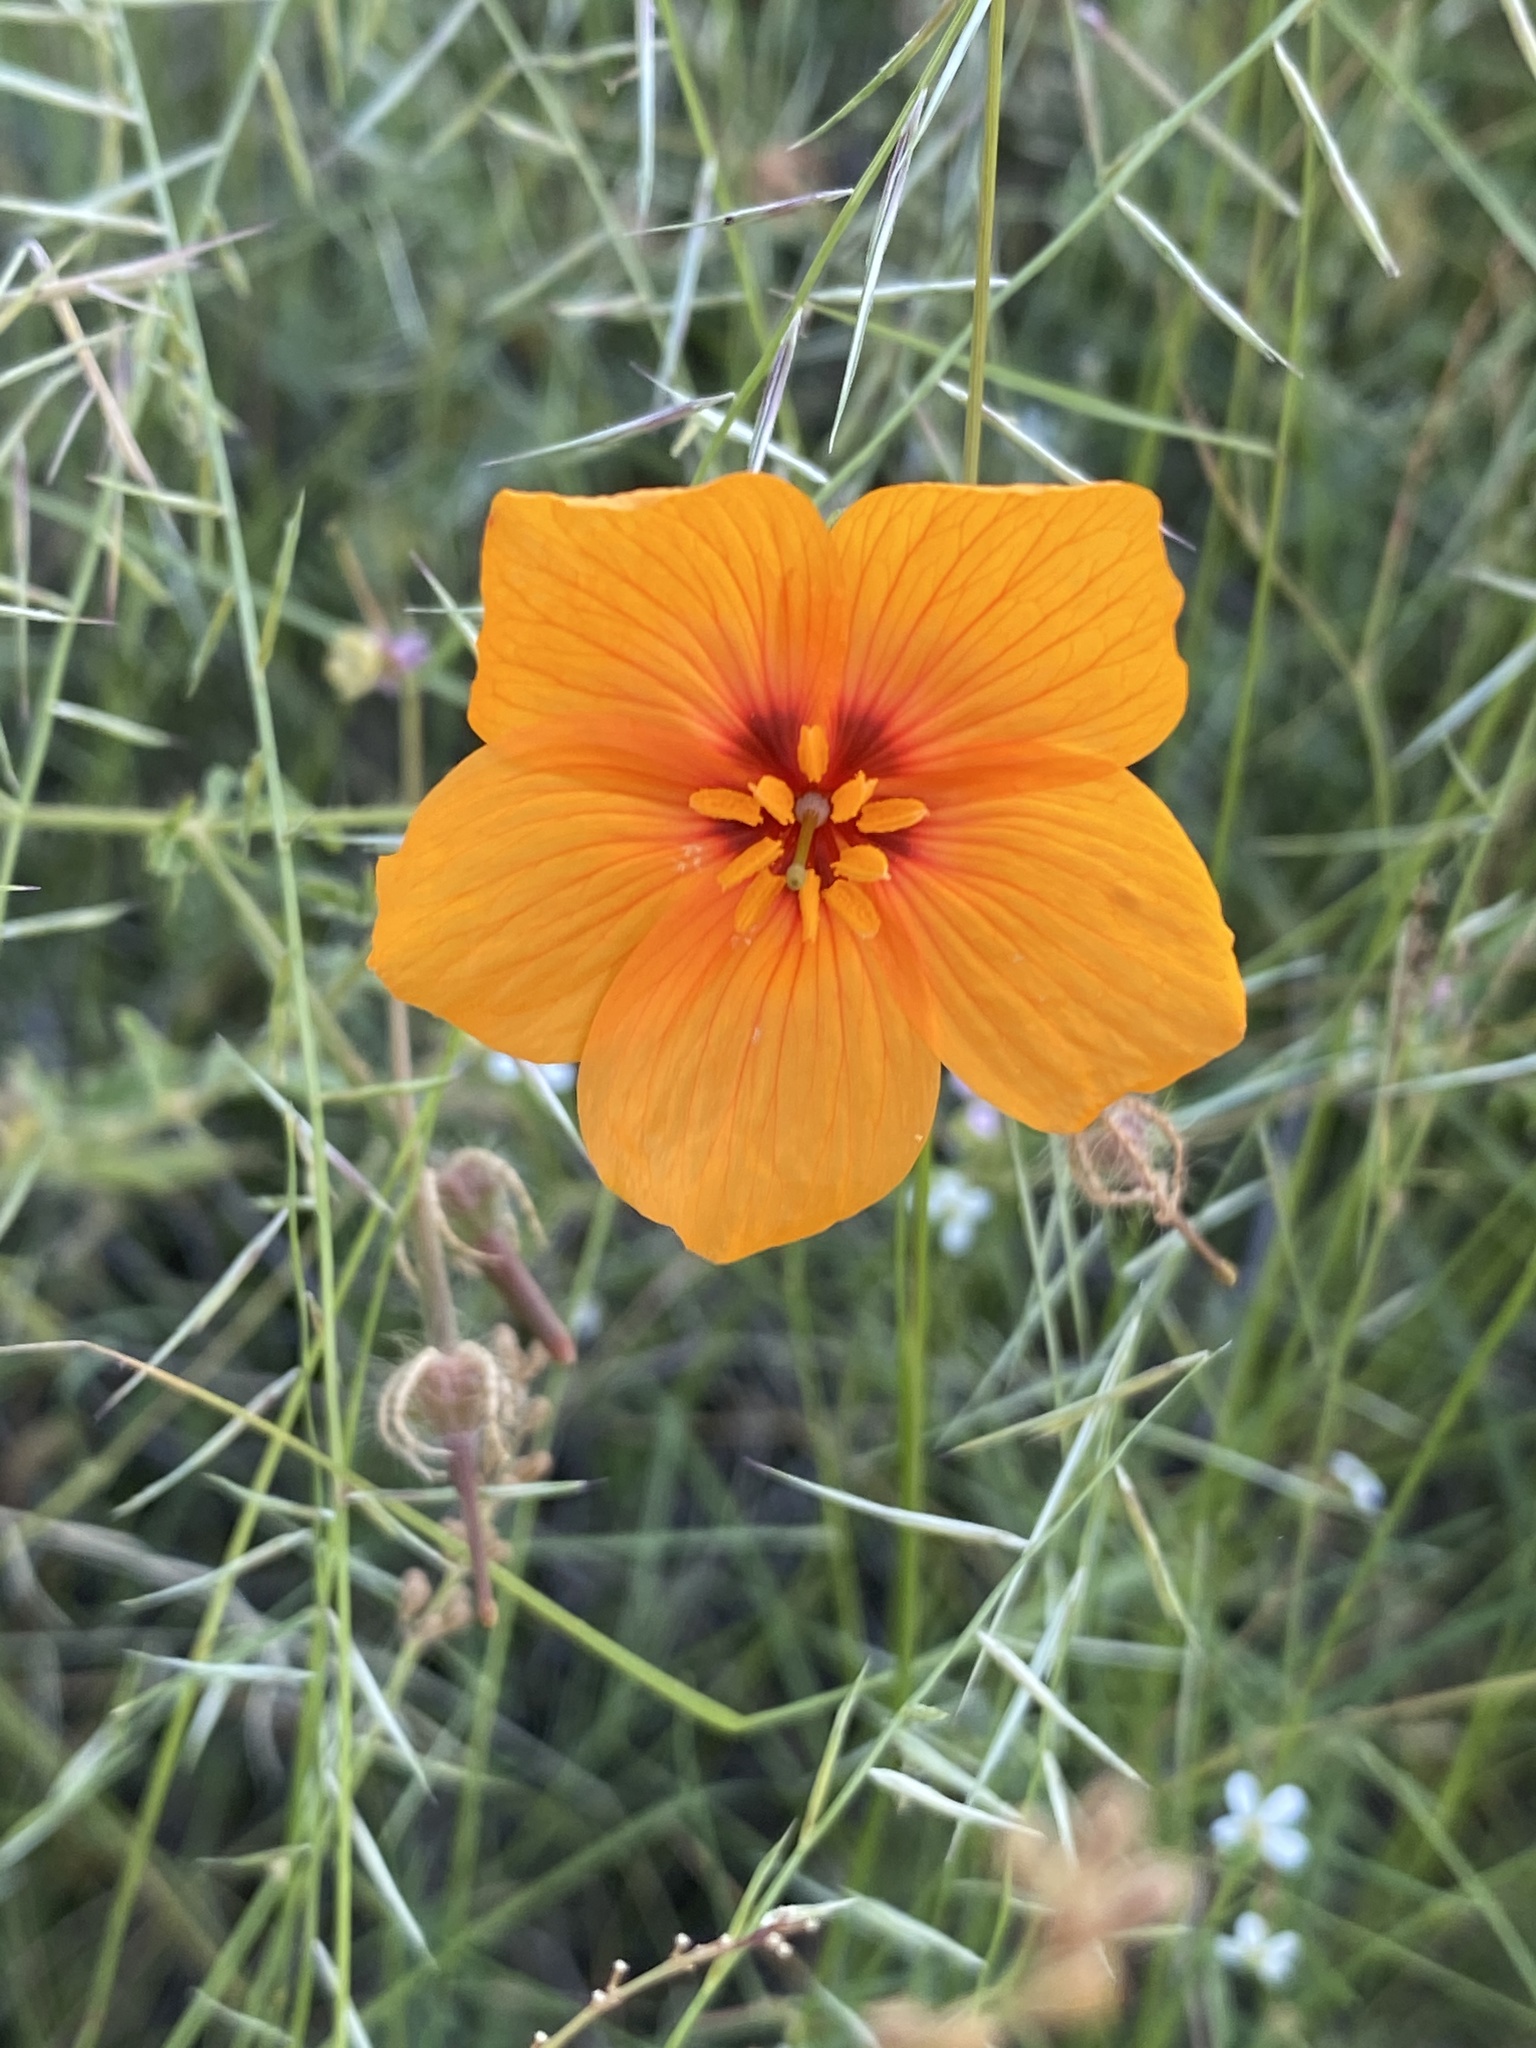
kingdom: Plantae
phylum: Tracheophyta
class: Magnoliopsida
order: Zygophyllales
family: Zygophyllaceae
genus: Kallstroemia
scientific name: Kallstroemia grandiflora
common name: Arizona-poppy
